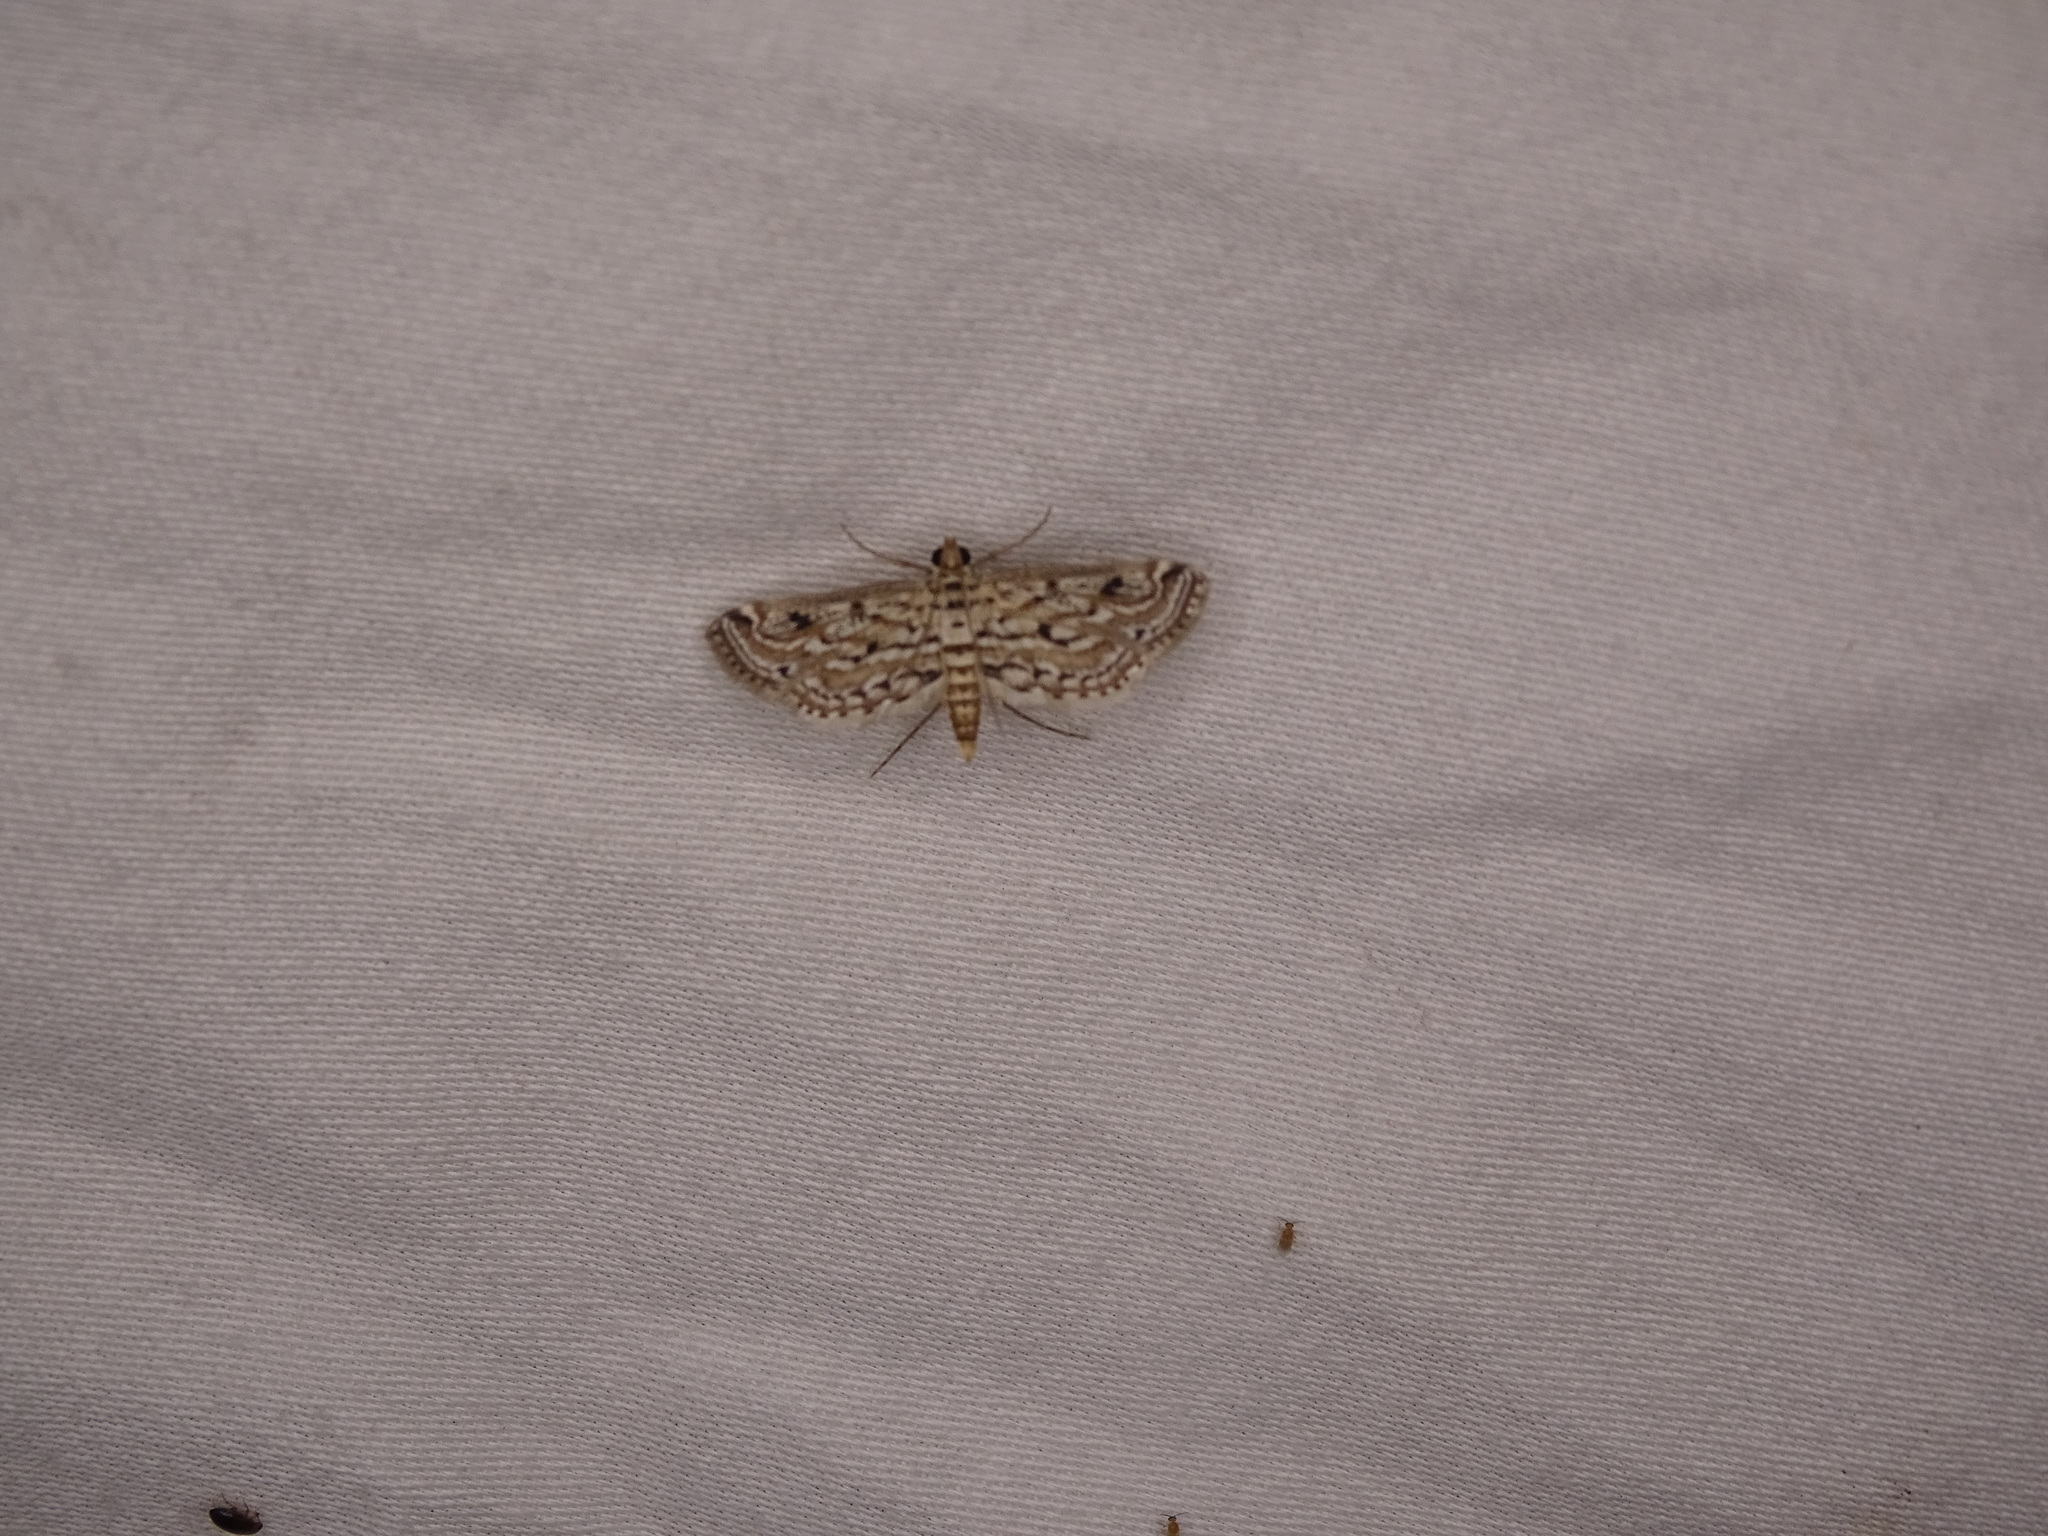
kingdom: Animalia
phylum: Arthropoda
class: Insecta
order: Lepidoptera
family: Crambidae
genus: Parapoynx
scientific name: Parapoynx allionealis
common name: Bladderwort casemaker
